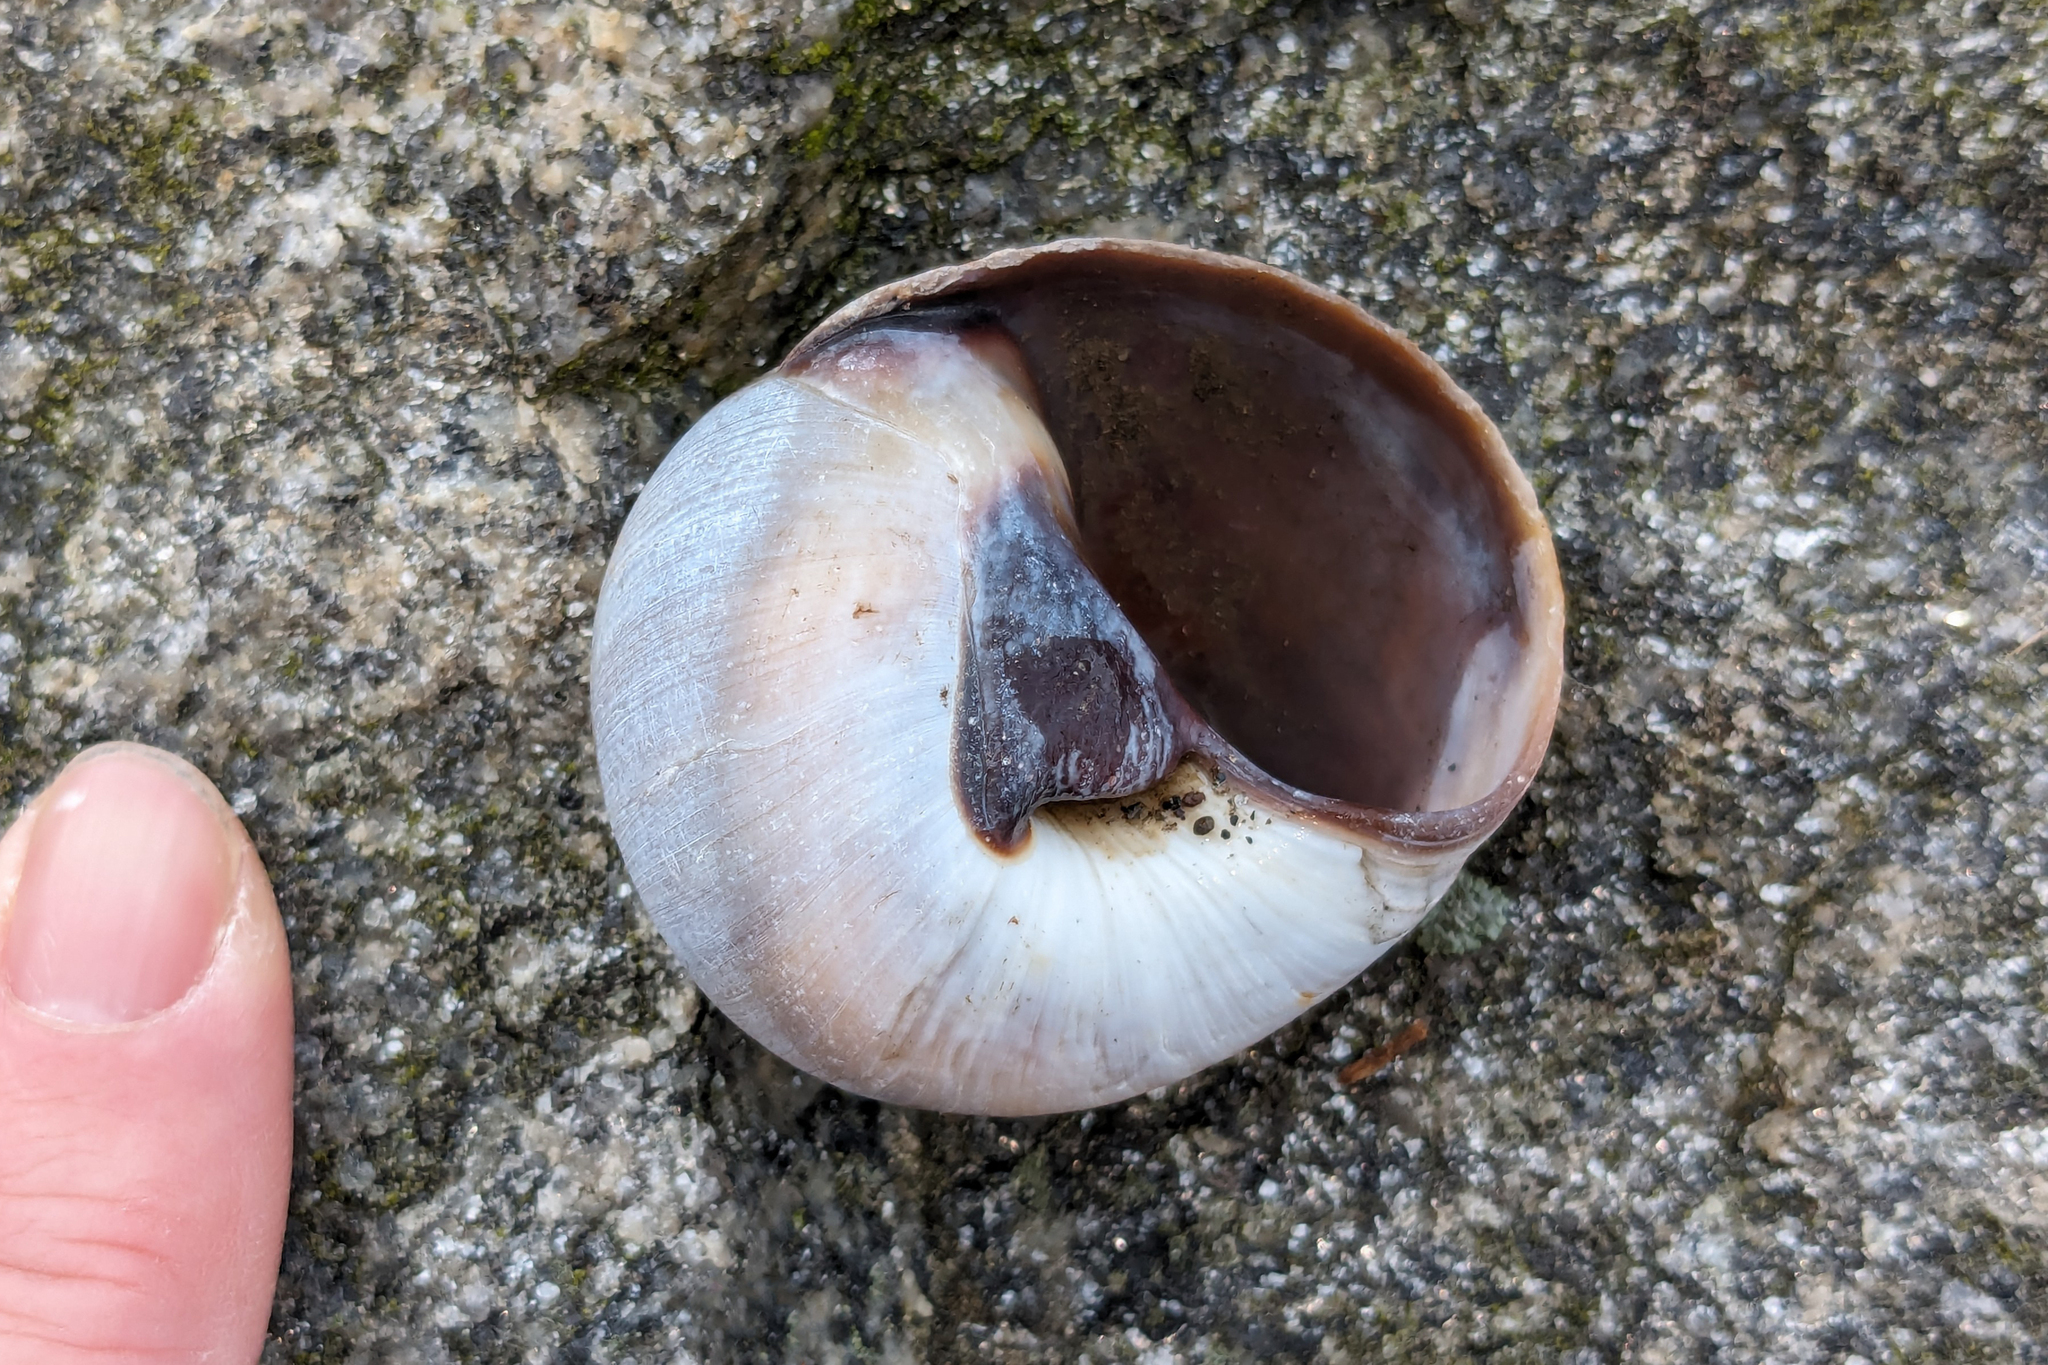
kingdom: Animalia
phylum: Mollusca
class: Gastropoda
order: Littorinimorpha
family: Naticidae
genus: Neverita
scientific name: Neverita duplicata
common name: Lobed moonsnail
